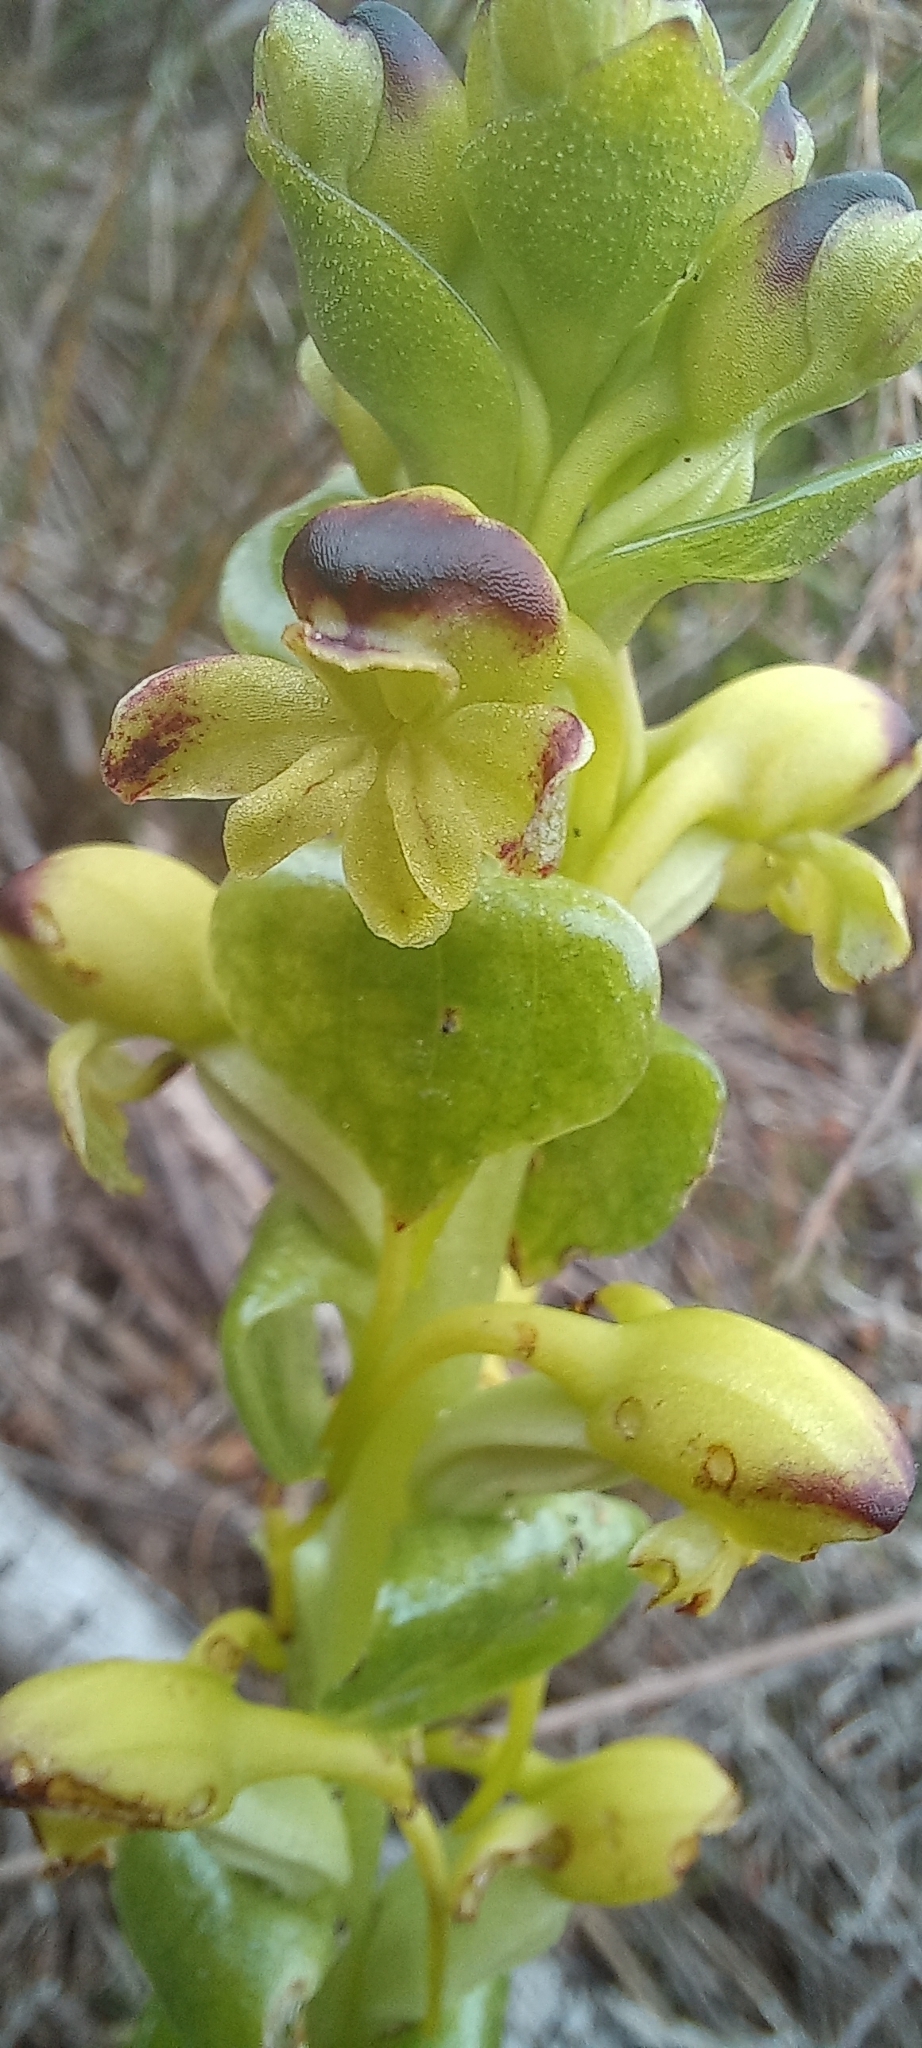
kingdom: Plantae
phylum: Tracheophyta
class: Liliopsida
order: Asparagales
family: Orchidaceae
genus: Satyrium
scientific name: Satyrium odorum
